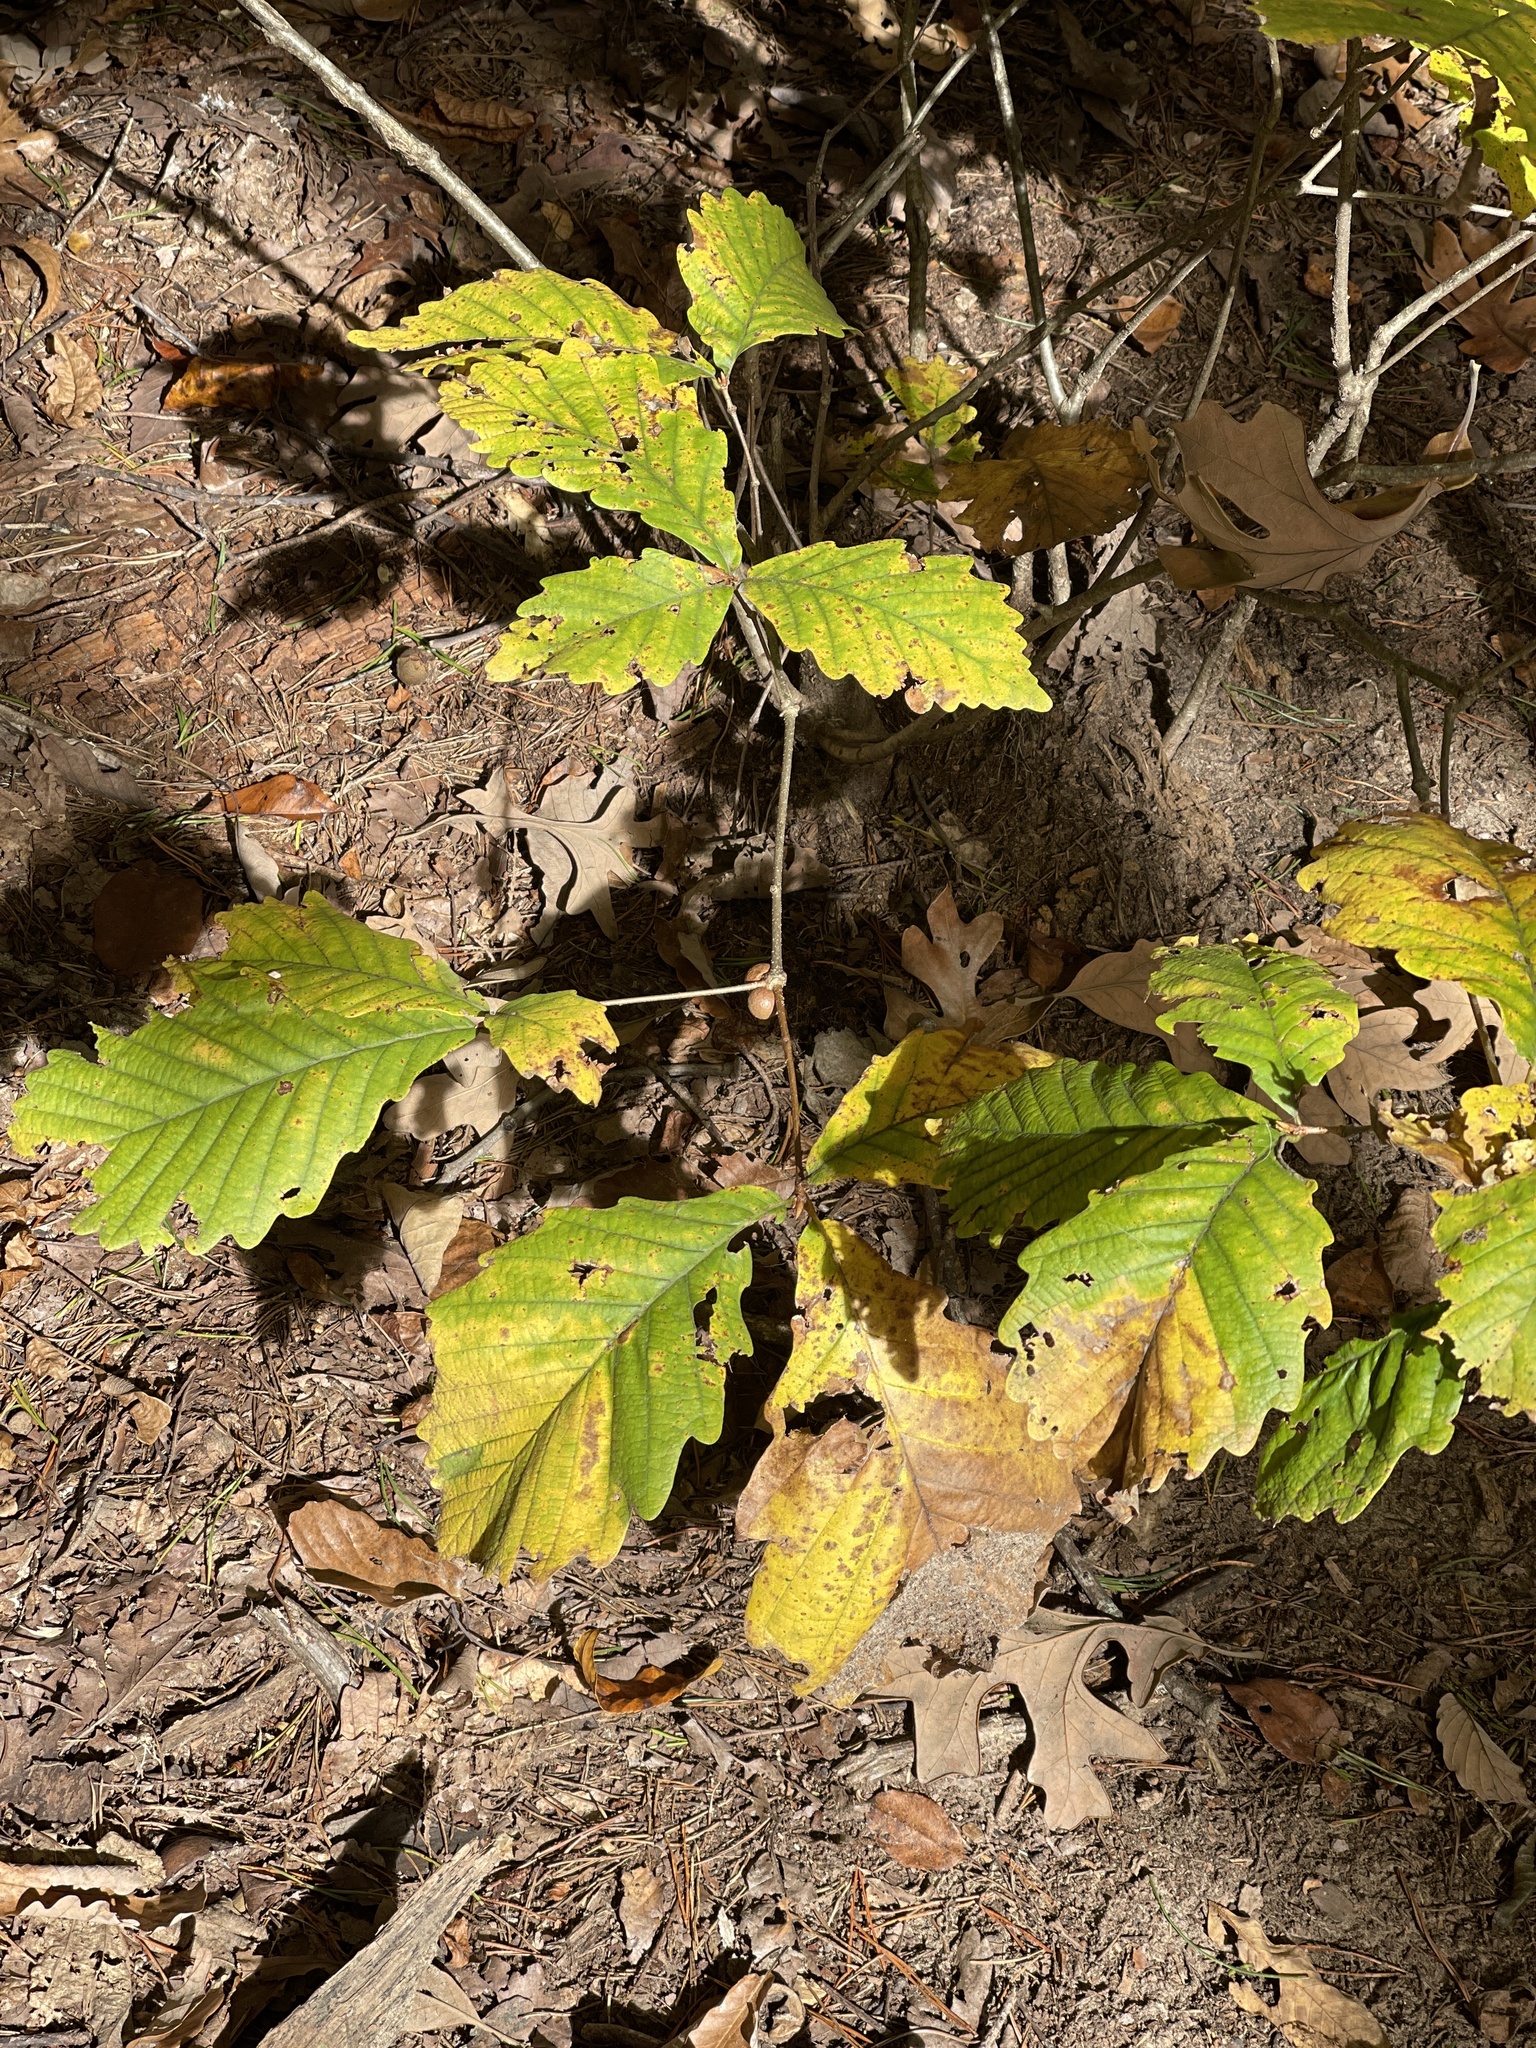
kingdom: Plantae
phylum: Tracheophyta
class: Magnoliopsida
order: Fagales
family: Fagaceae
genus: Quercus
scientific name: Quercus montana
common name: Chestnut oak
